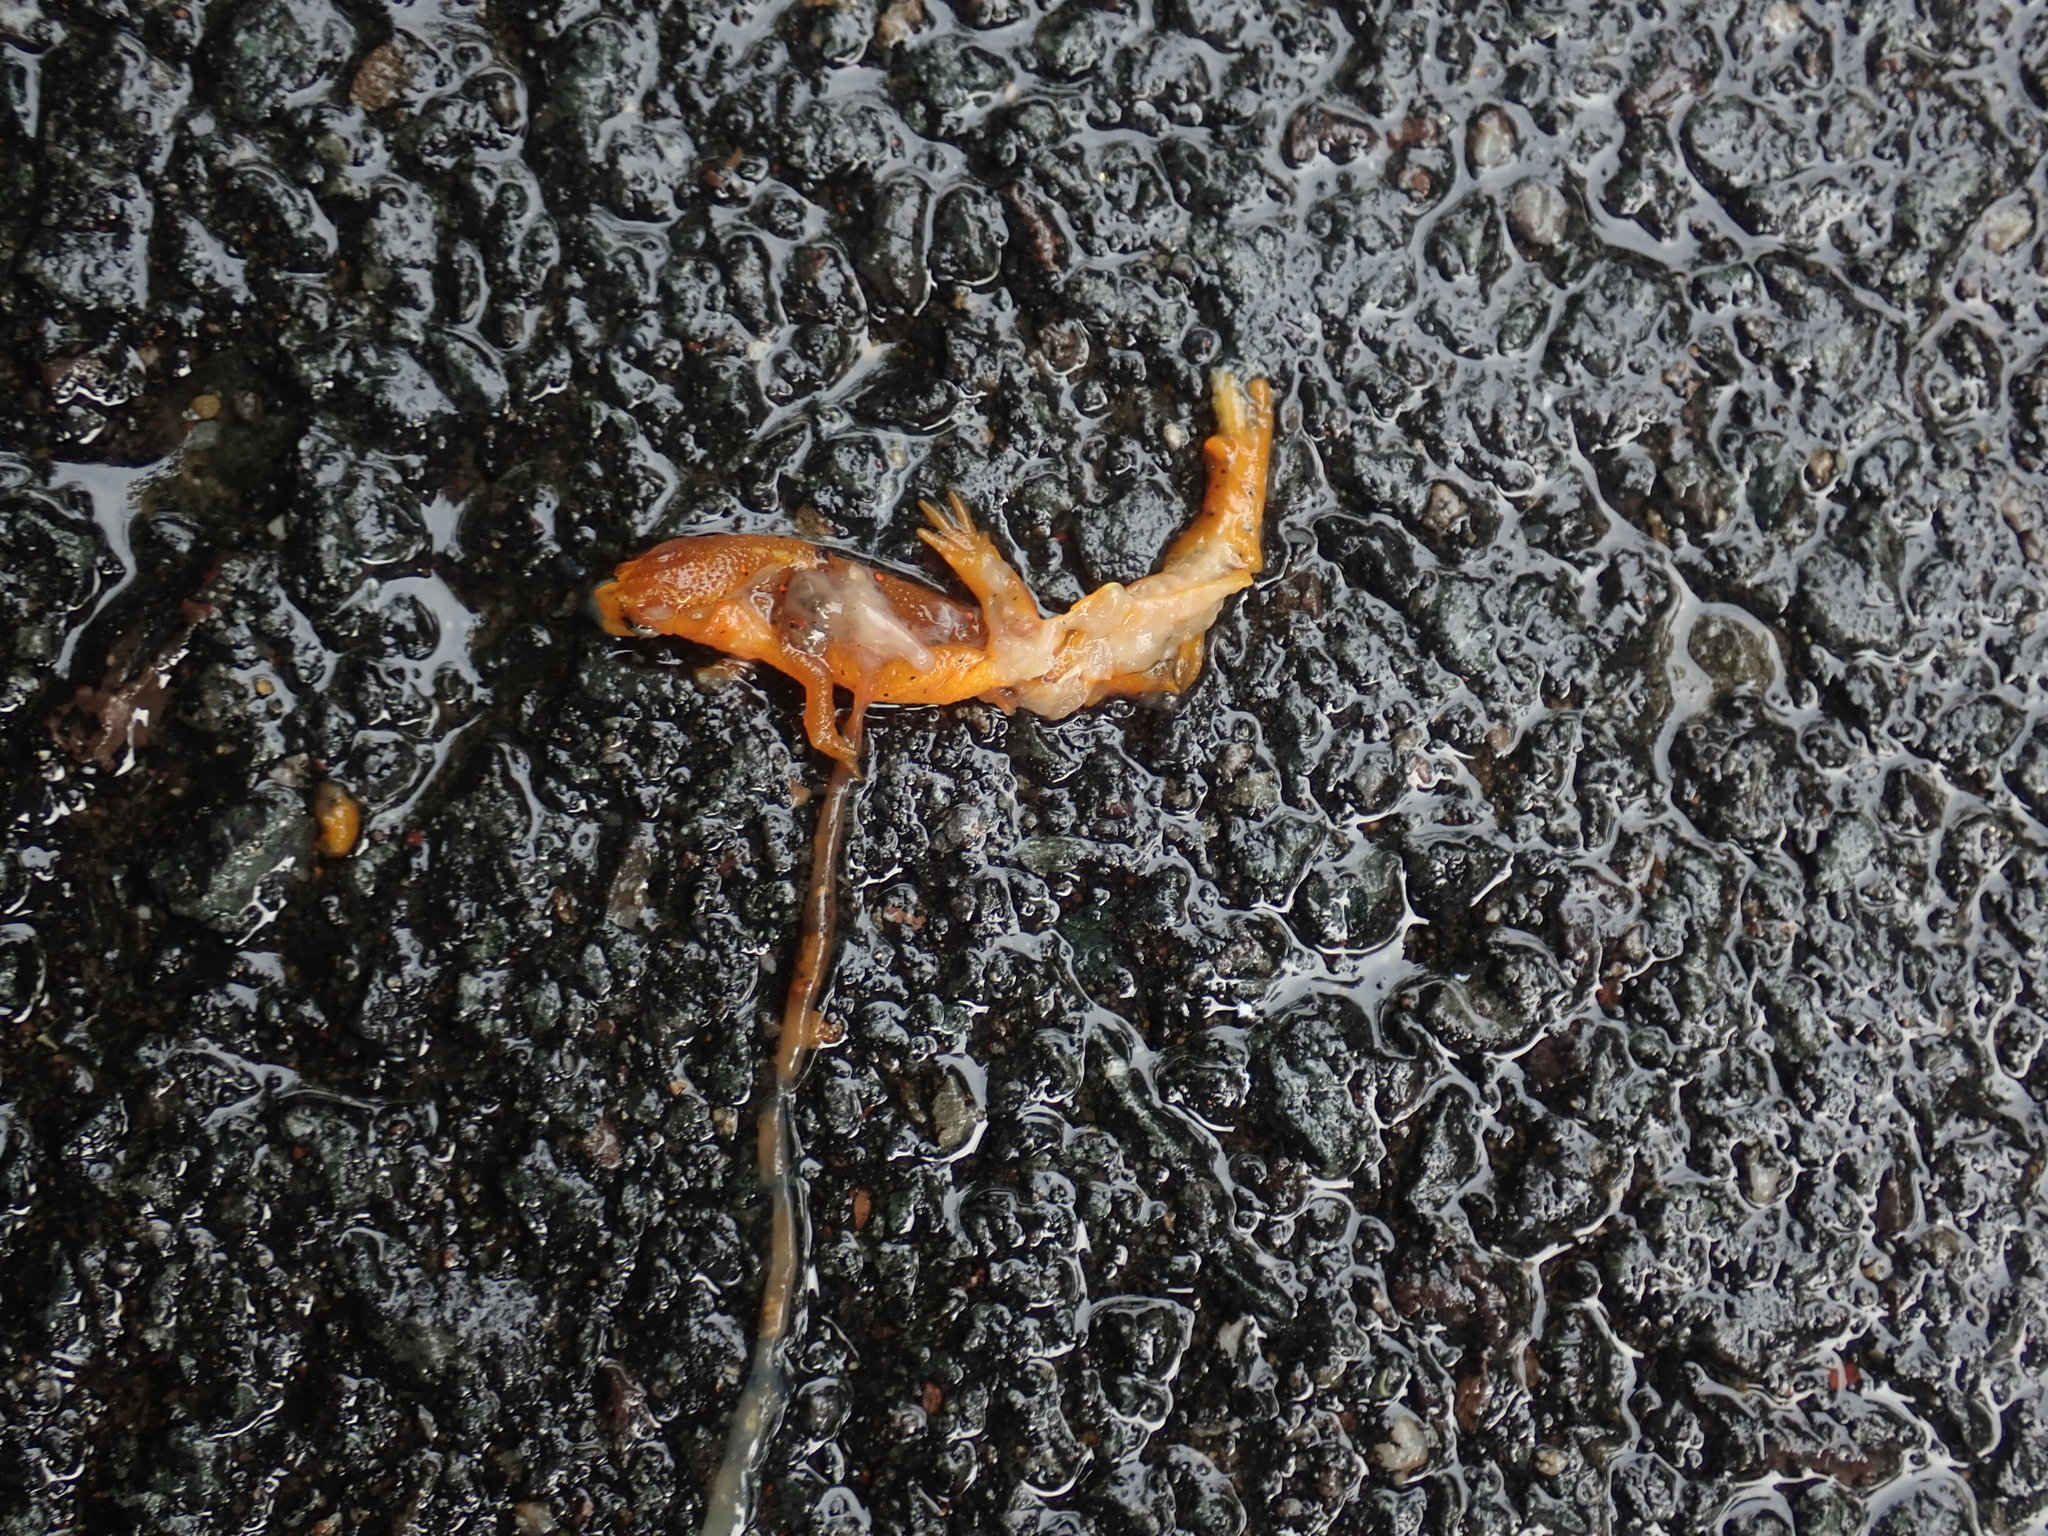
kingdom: Animalia
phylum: Chordata
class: Amphibia
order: Caudata
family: Salamandridae
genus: Notophthalmus
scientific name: Notophthalmus viridescens
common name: Eastern newt
